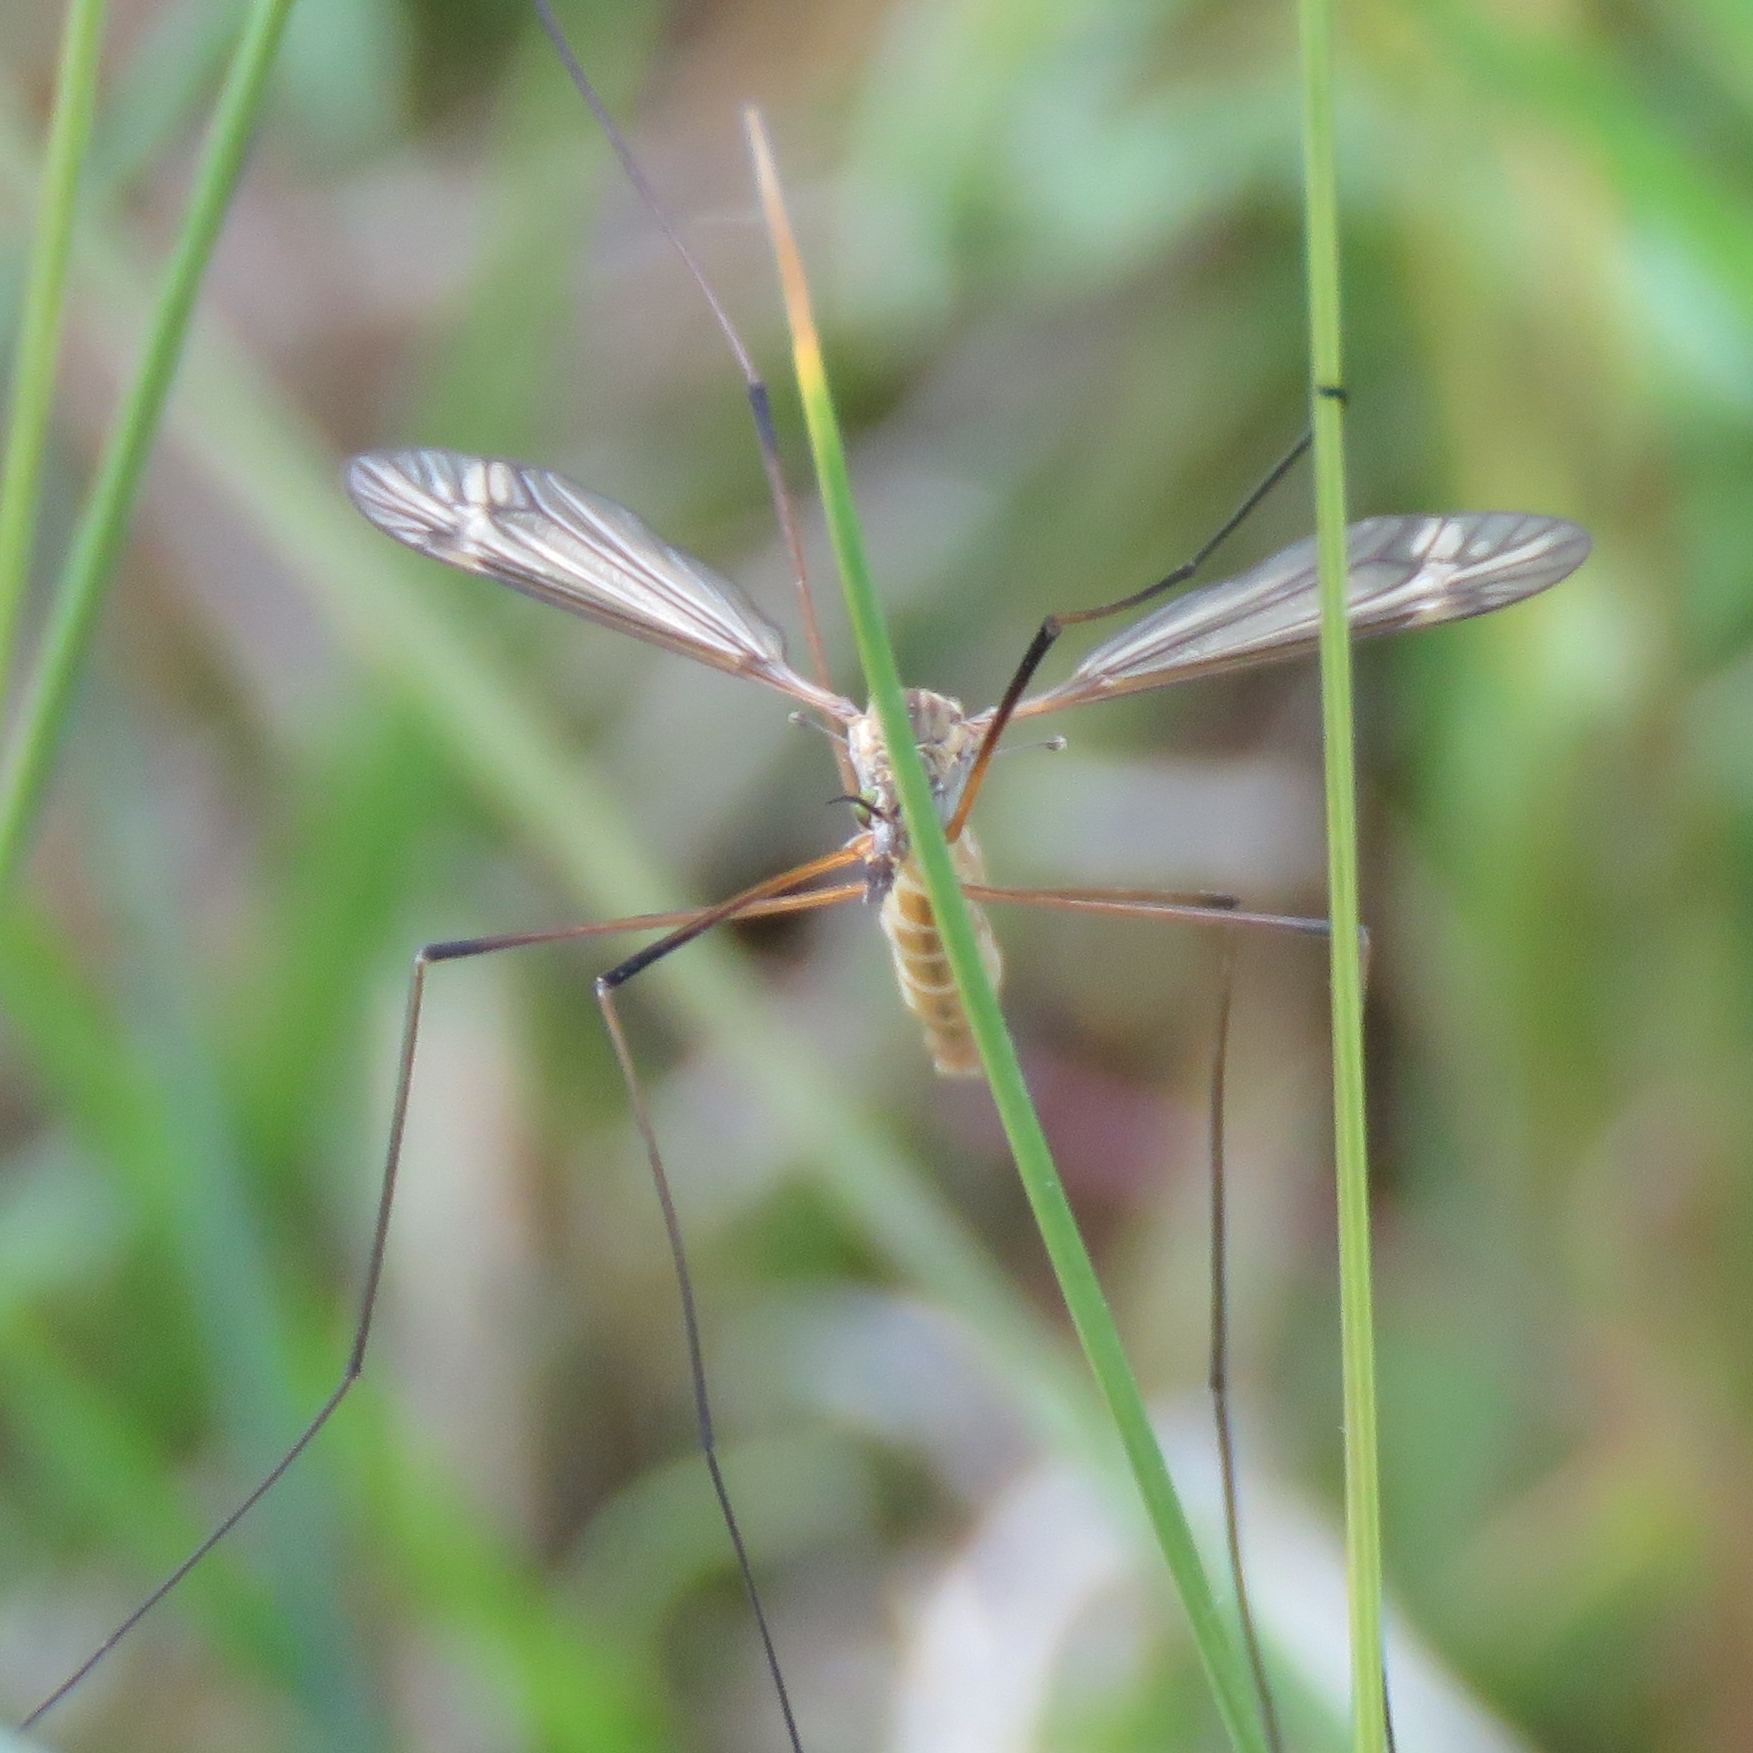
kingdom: Animalia
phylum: Arthropoda
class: Insecta
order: Diptera
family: Tipulidae
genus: Tipula
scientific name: Tipula vernalis
